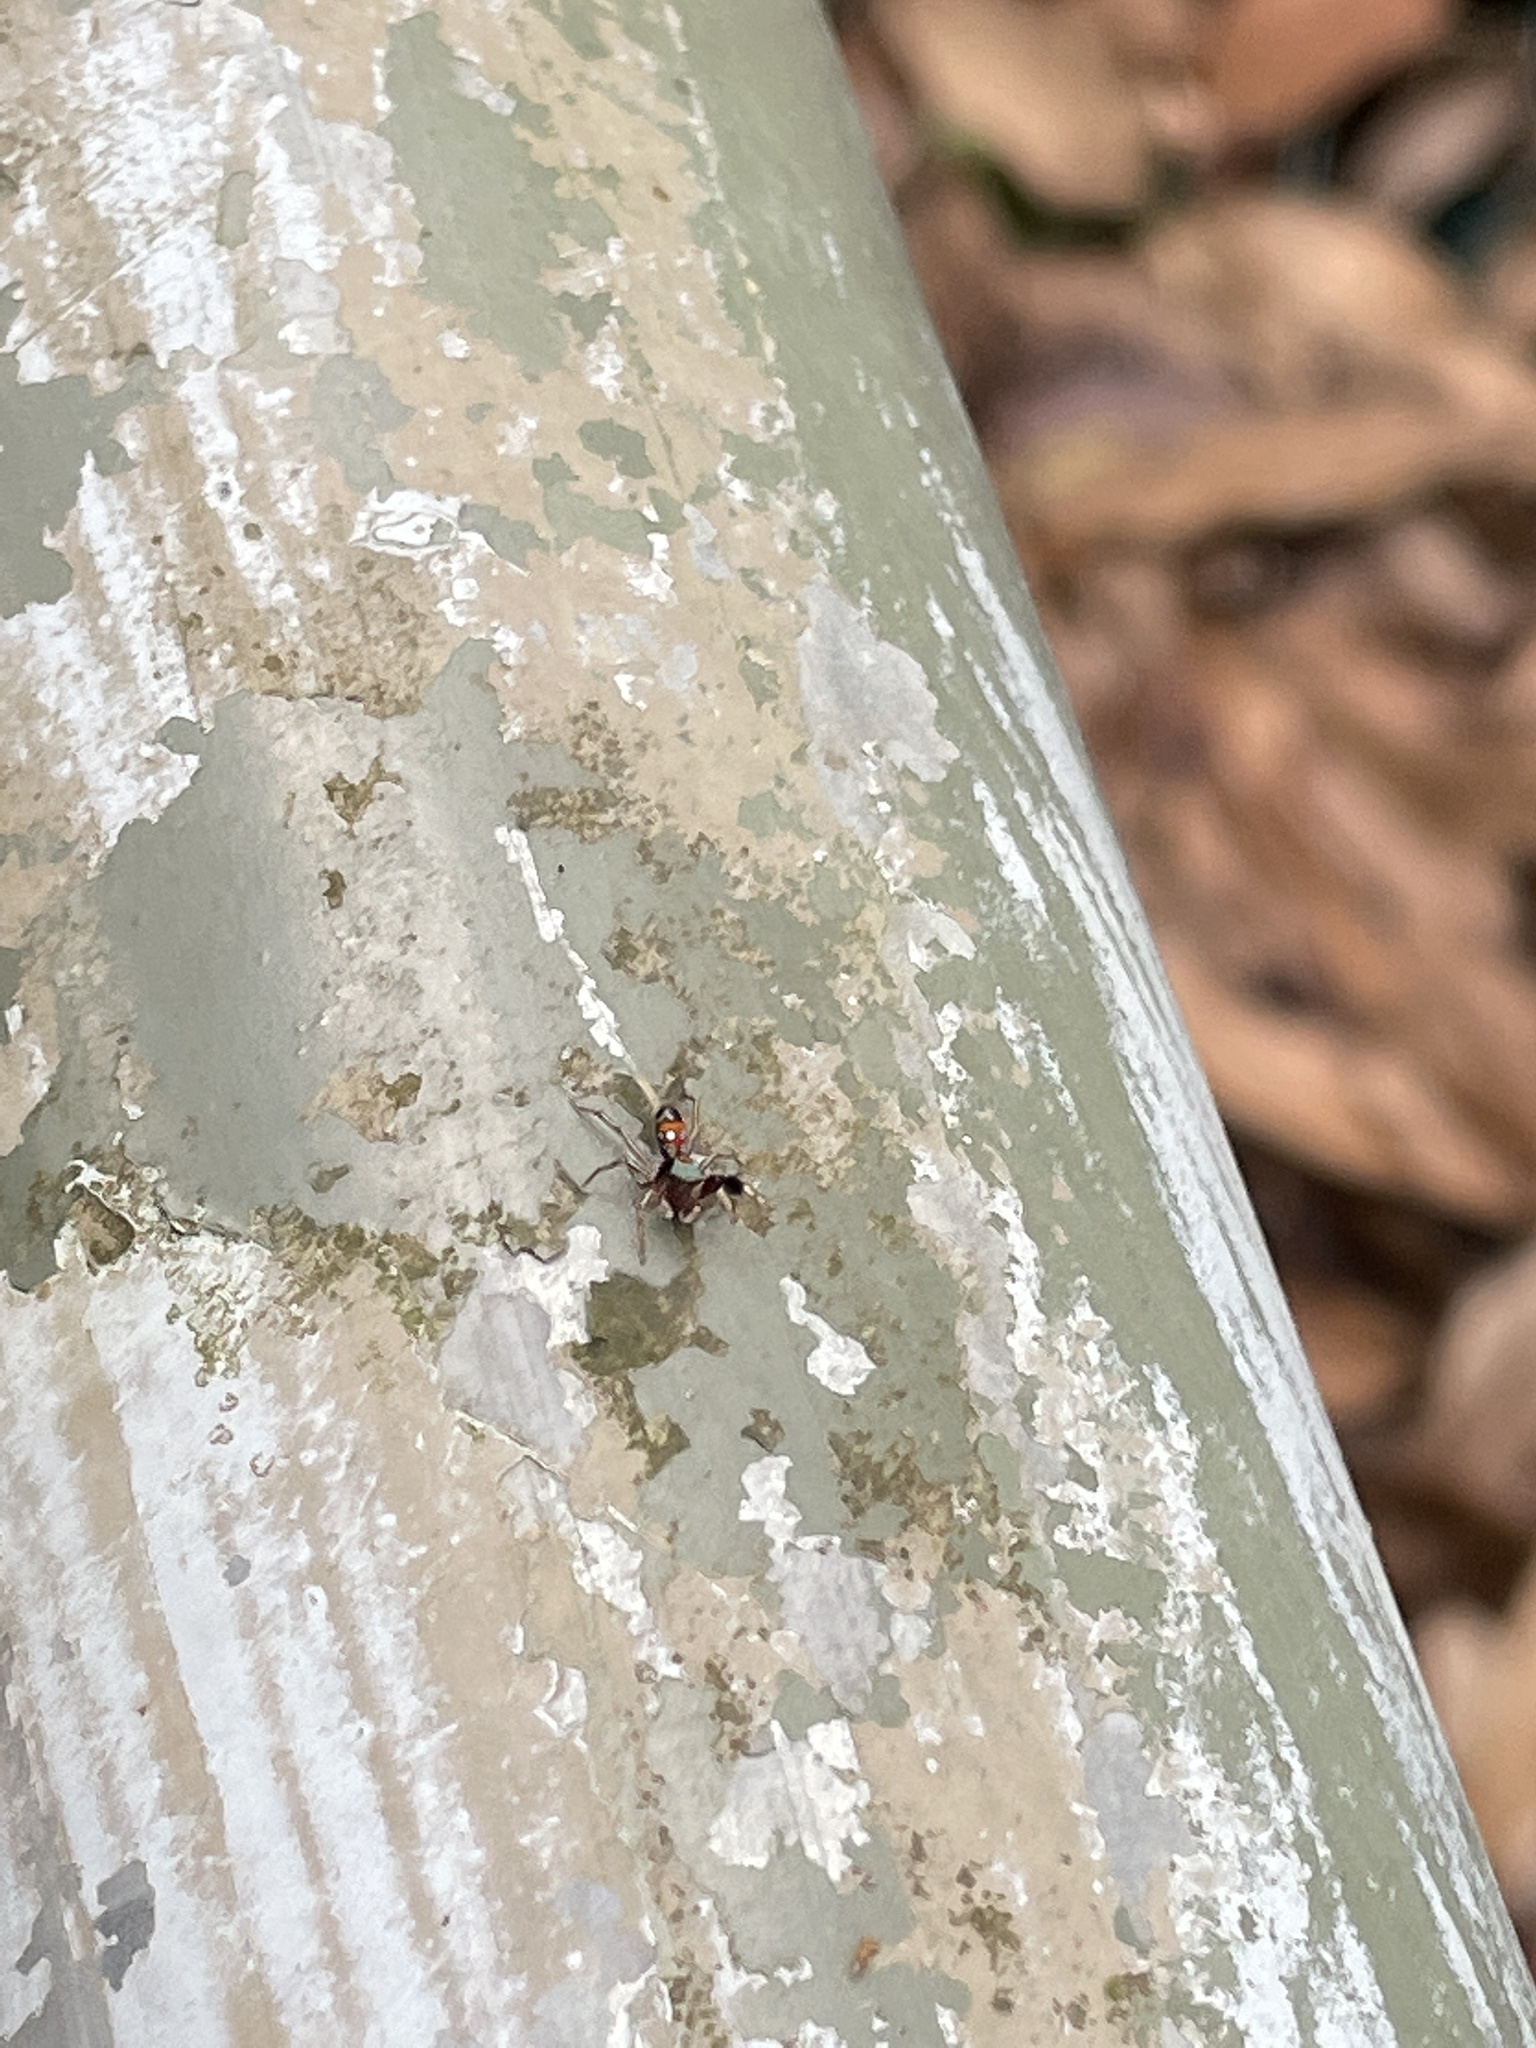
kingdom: Animalia
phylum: Arthropoda
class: Arachnida
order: Araneae
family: Salticidae
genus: Siler
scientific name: Siler collingwoodi
